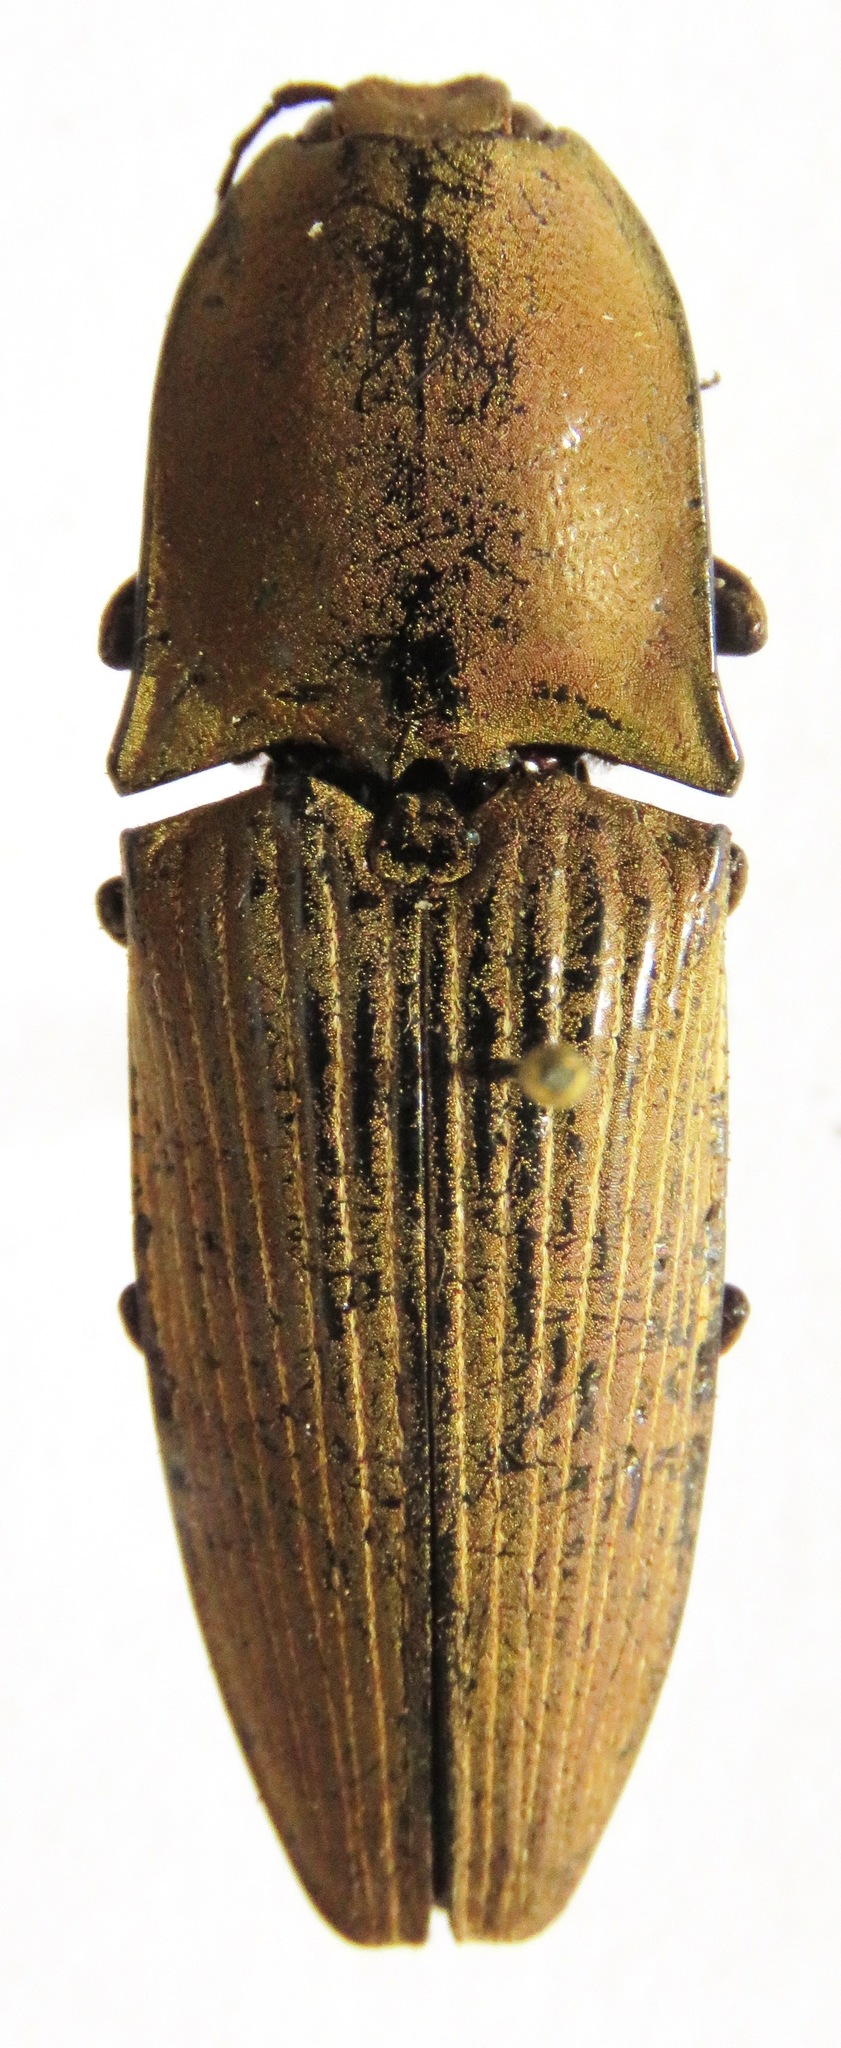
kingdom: Animalia
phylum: Arthropoda
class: Insecta
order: Coleoptera
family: Elateridae
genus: Chalcolepidius
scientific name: Chalcolepidius porcatus
